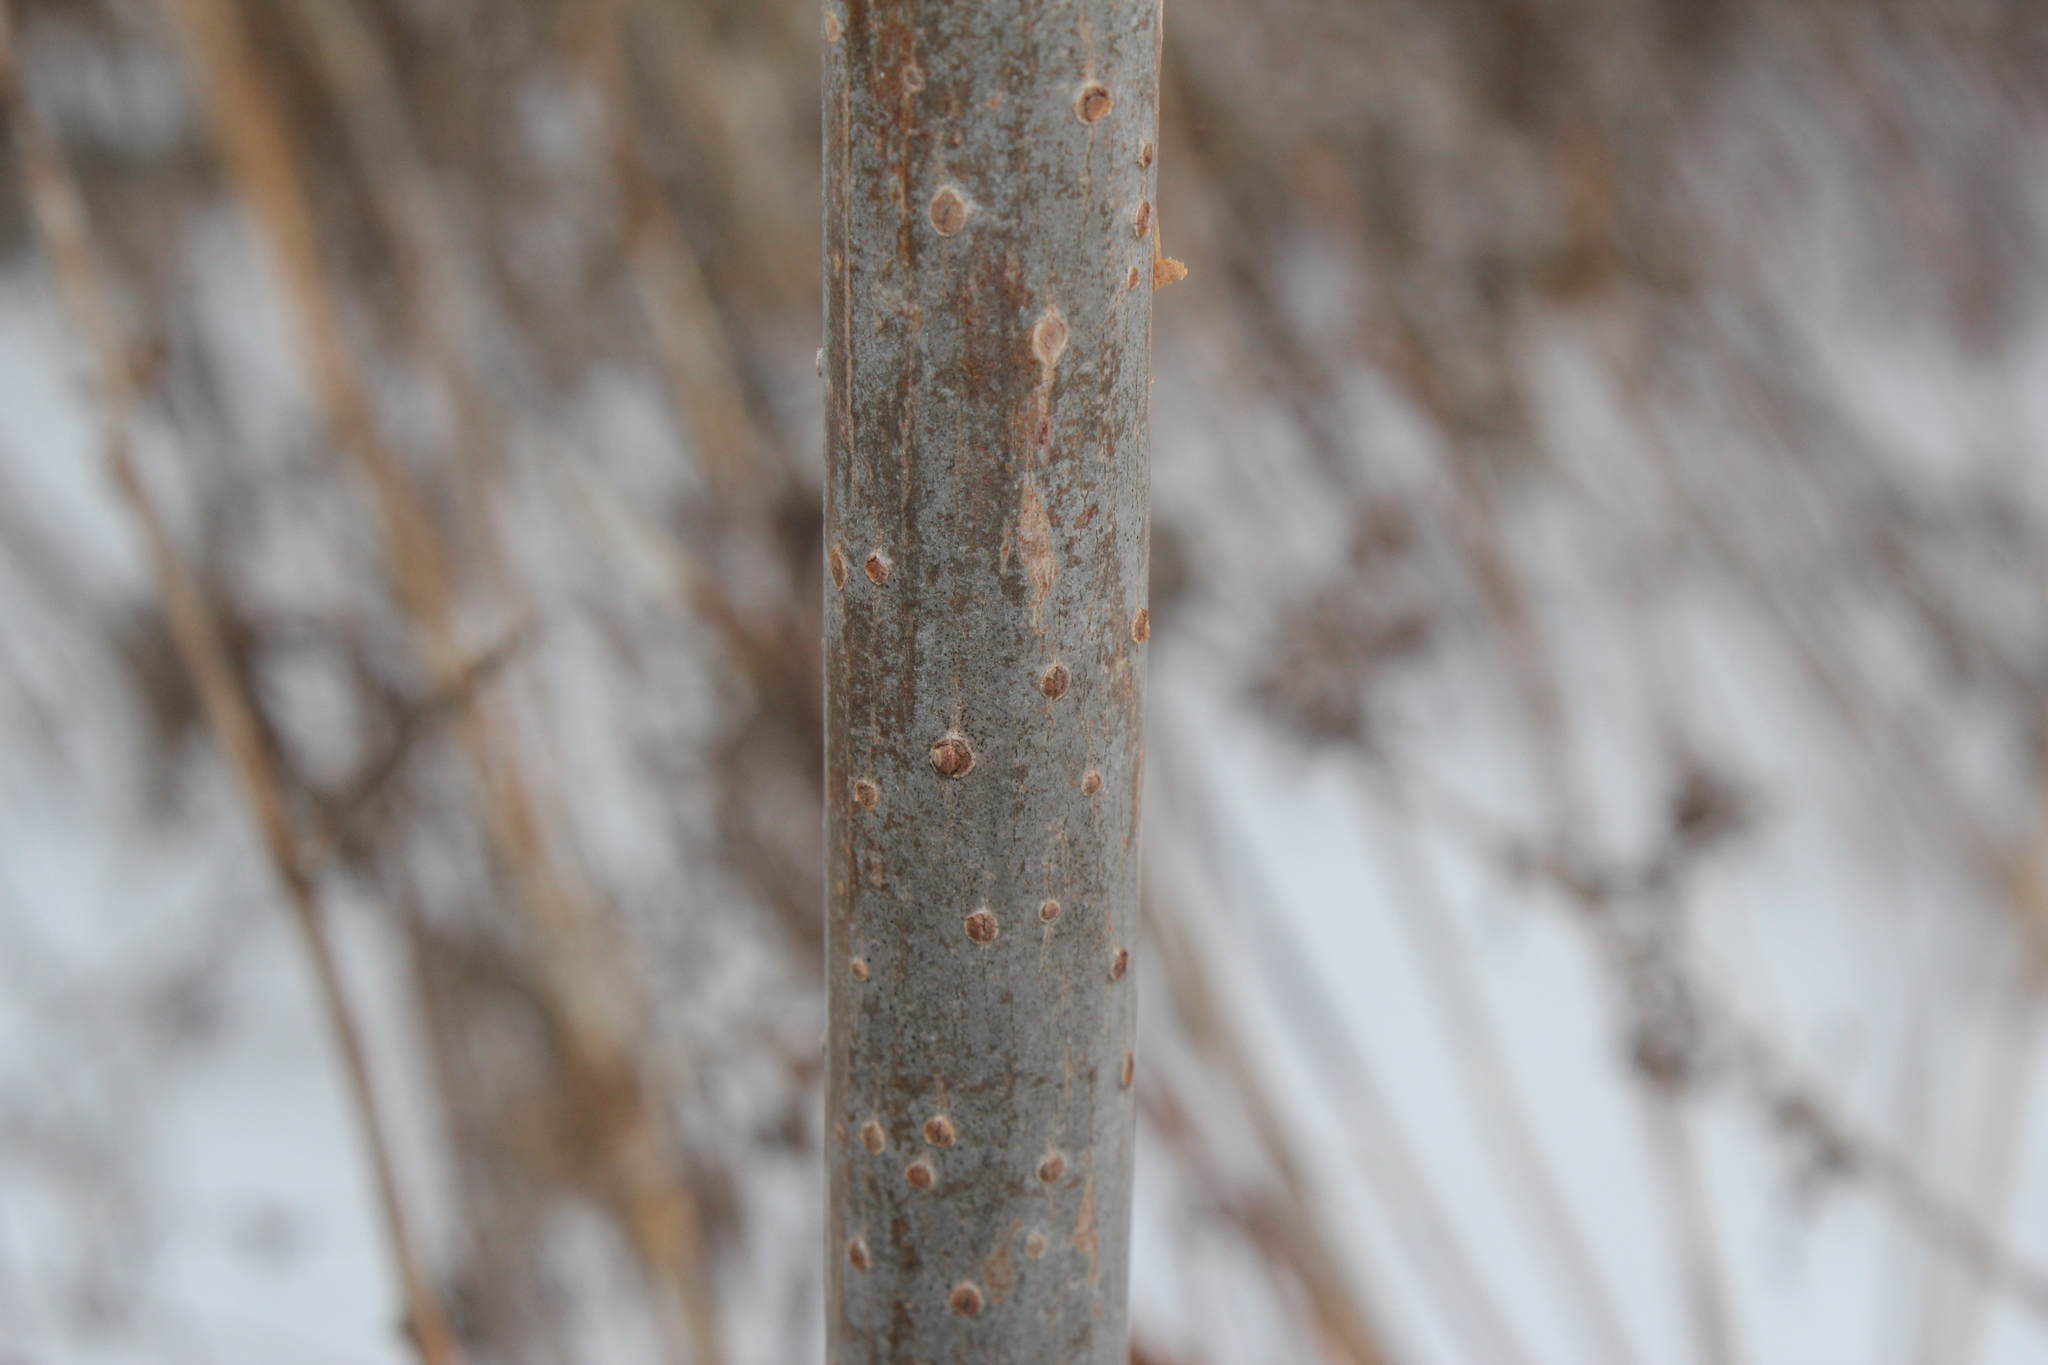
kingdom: Plantae
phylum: Tracheophyta
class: Magnoliopsida
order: Dipsacales
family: Viburnaceae
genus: Sambucus
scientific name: Sambucus canadensis
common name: American elder
